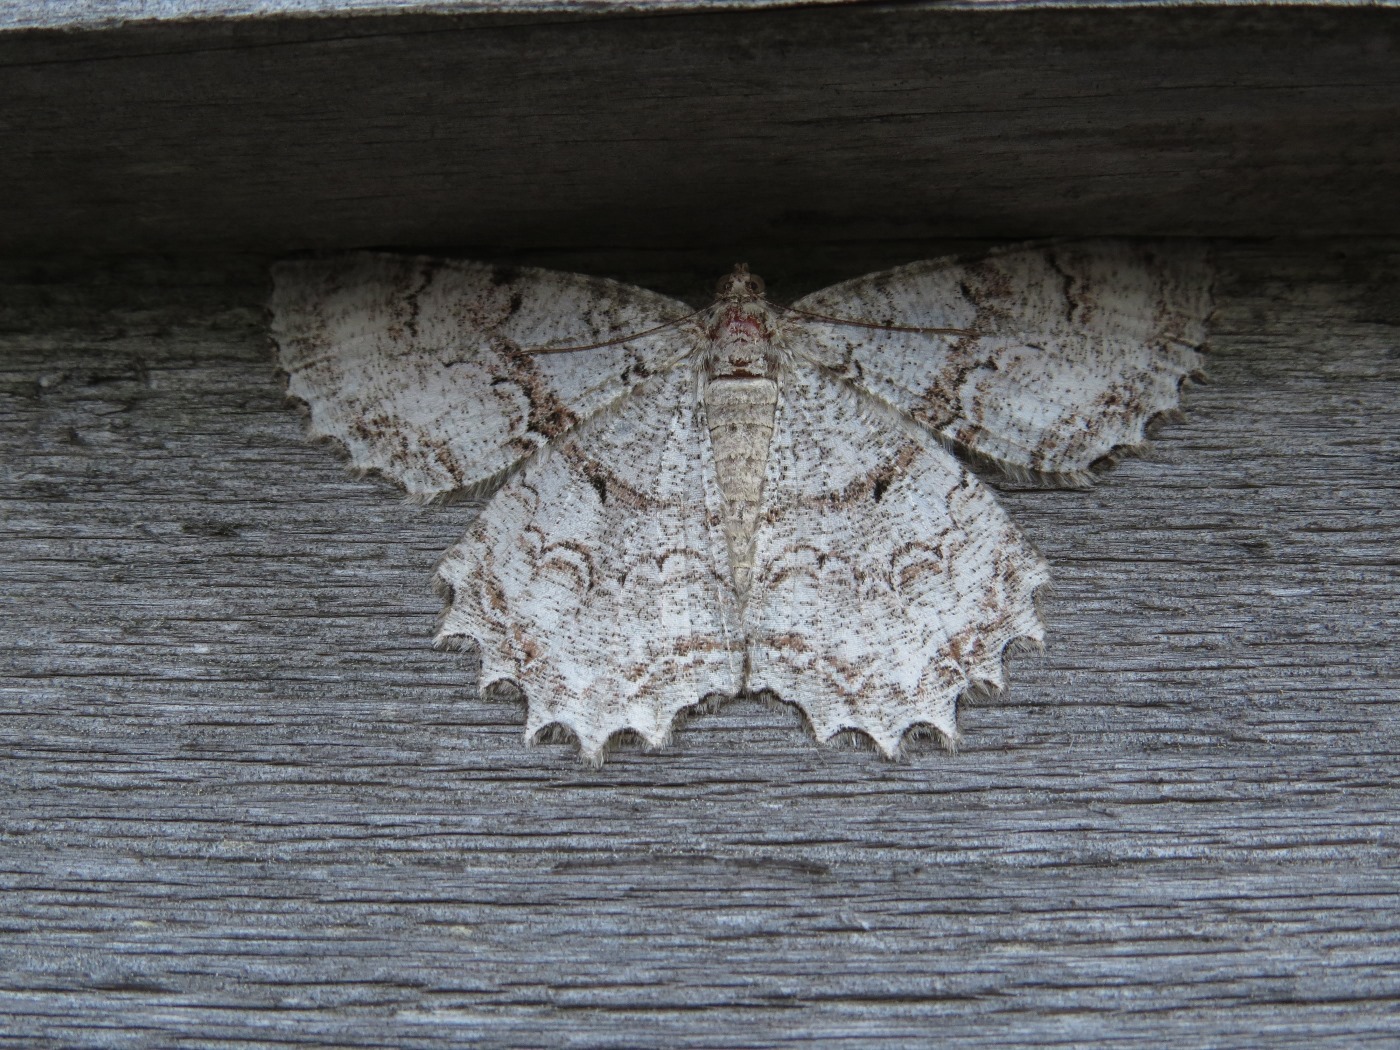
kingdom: Animalia
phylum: Arthropoda
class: Insecta
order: Lepidoptera
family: Geometridae
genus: Epimecis
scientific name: Epimecis hortaria
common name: Tulip-tree beauty
